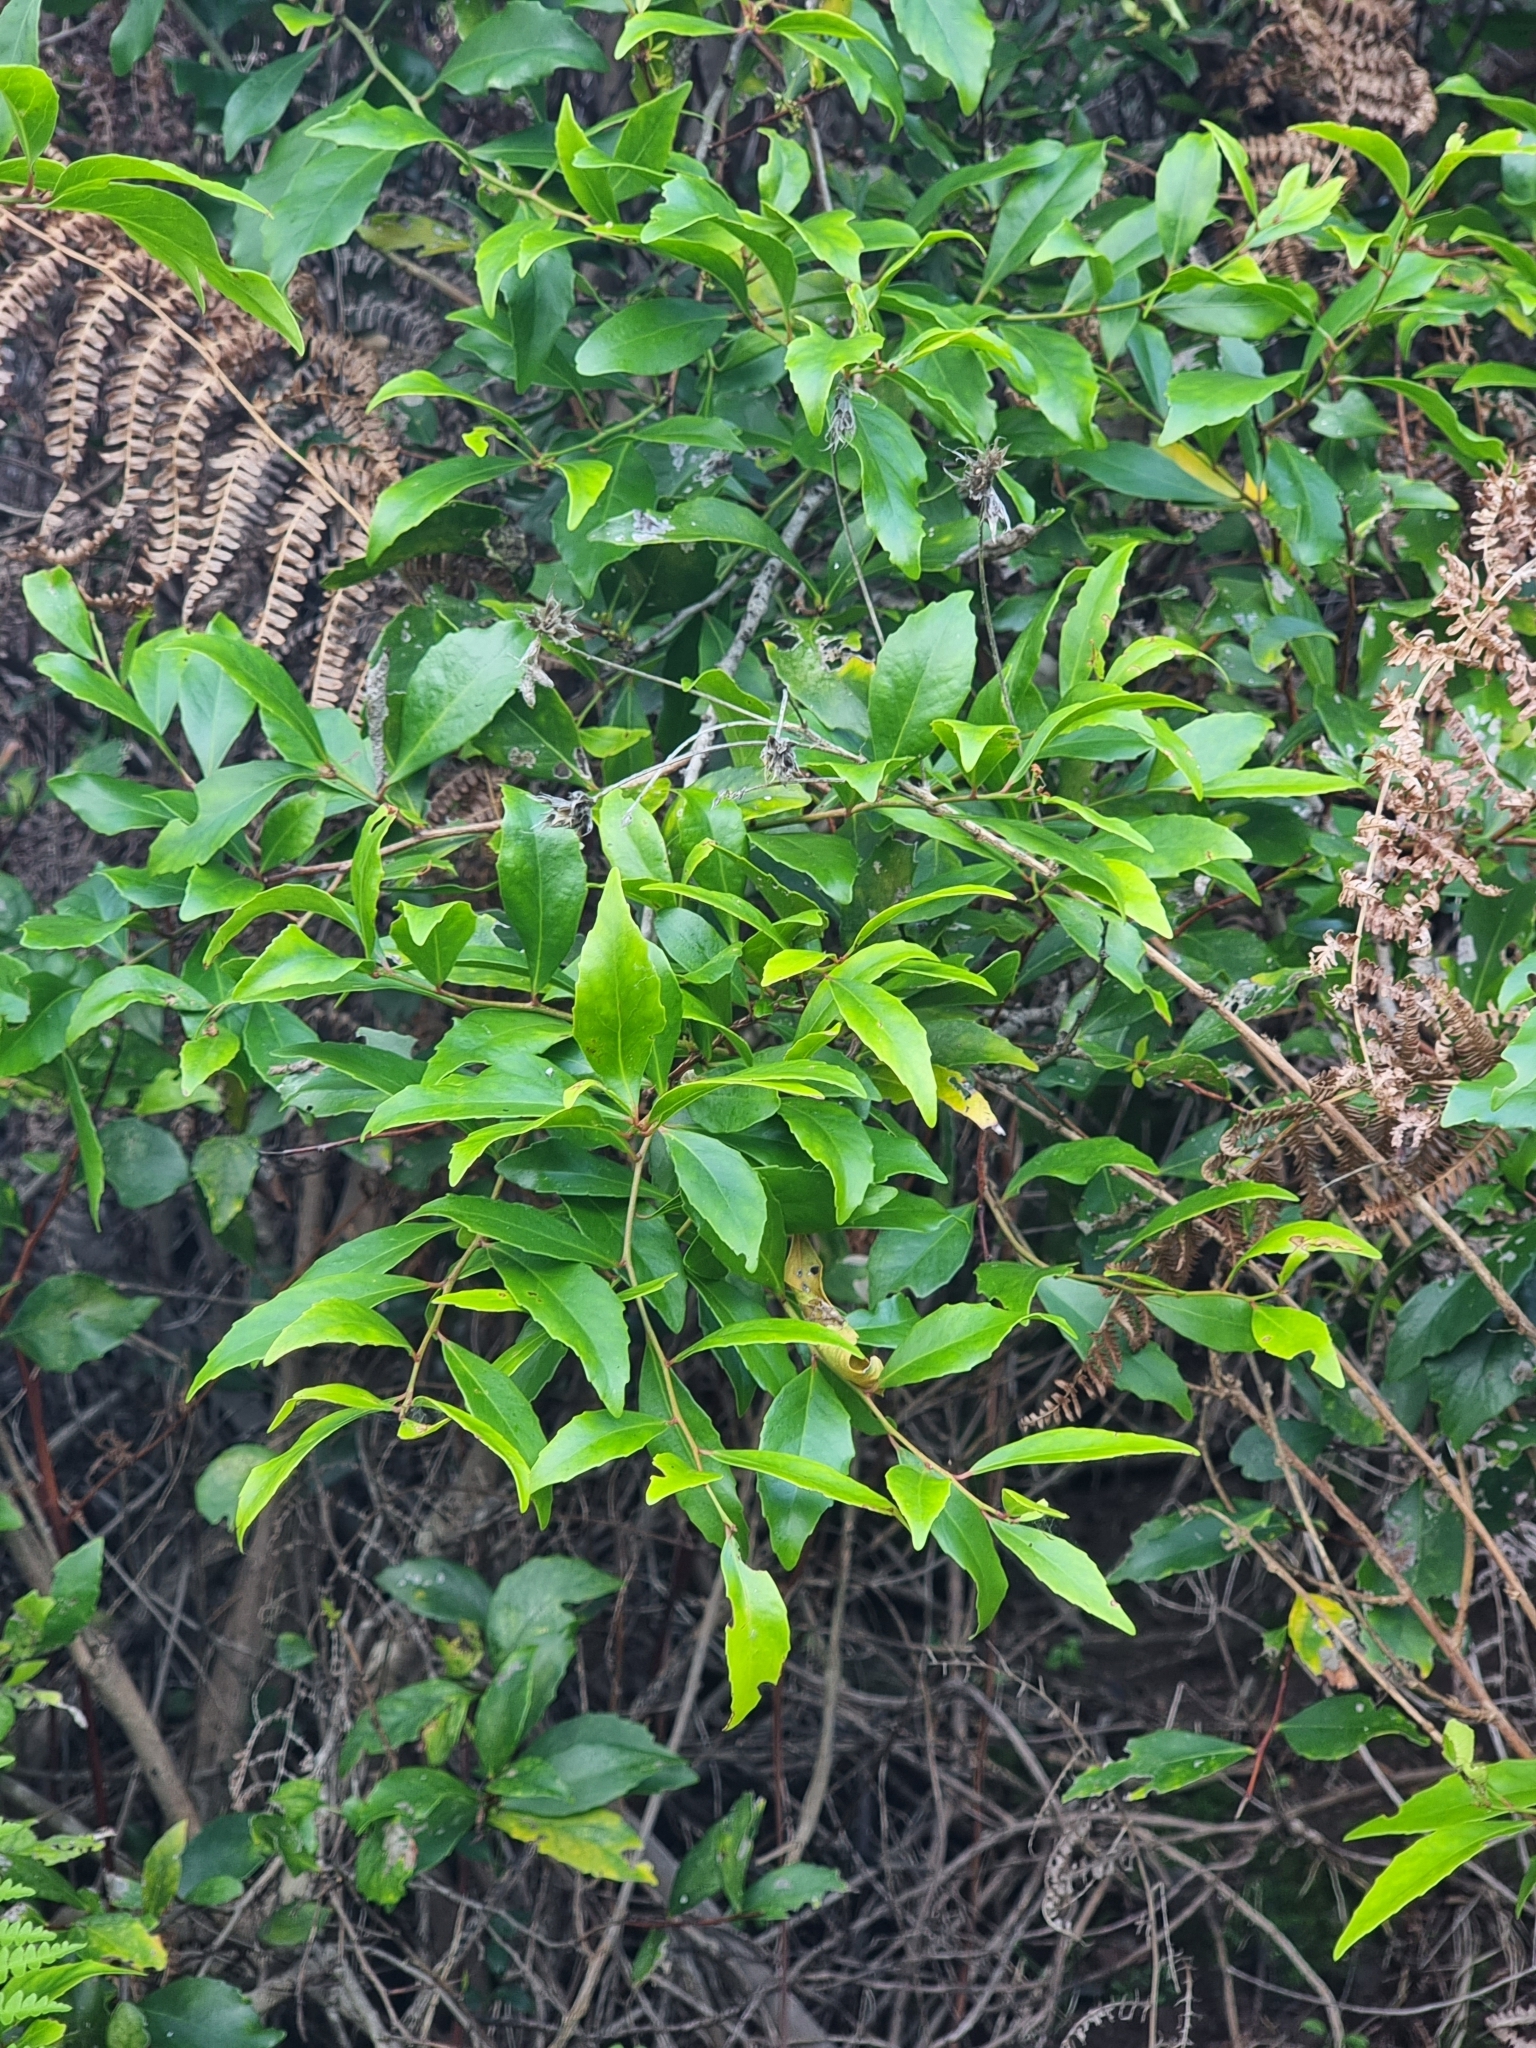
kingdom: Plantae
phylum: Tracheophyta
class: Magnoliopsida
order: Celastrales
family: Celastraceae
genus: Gymnosporia
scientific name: Gymnosporia dryandri
